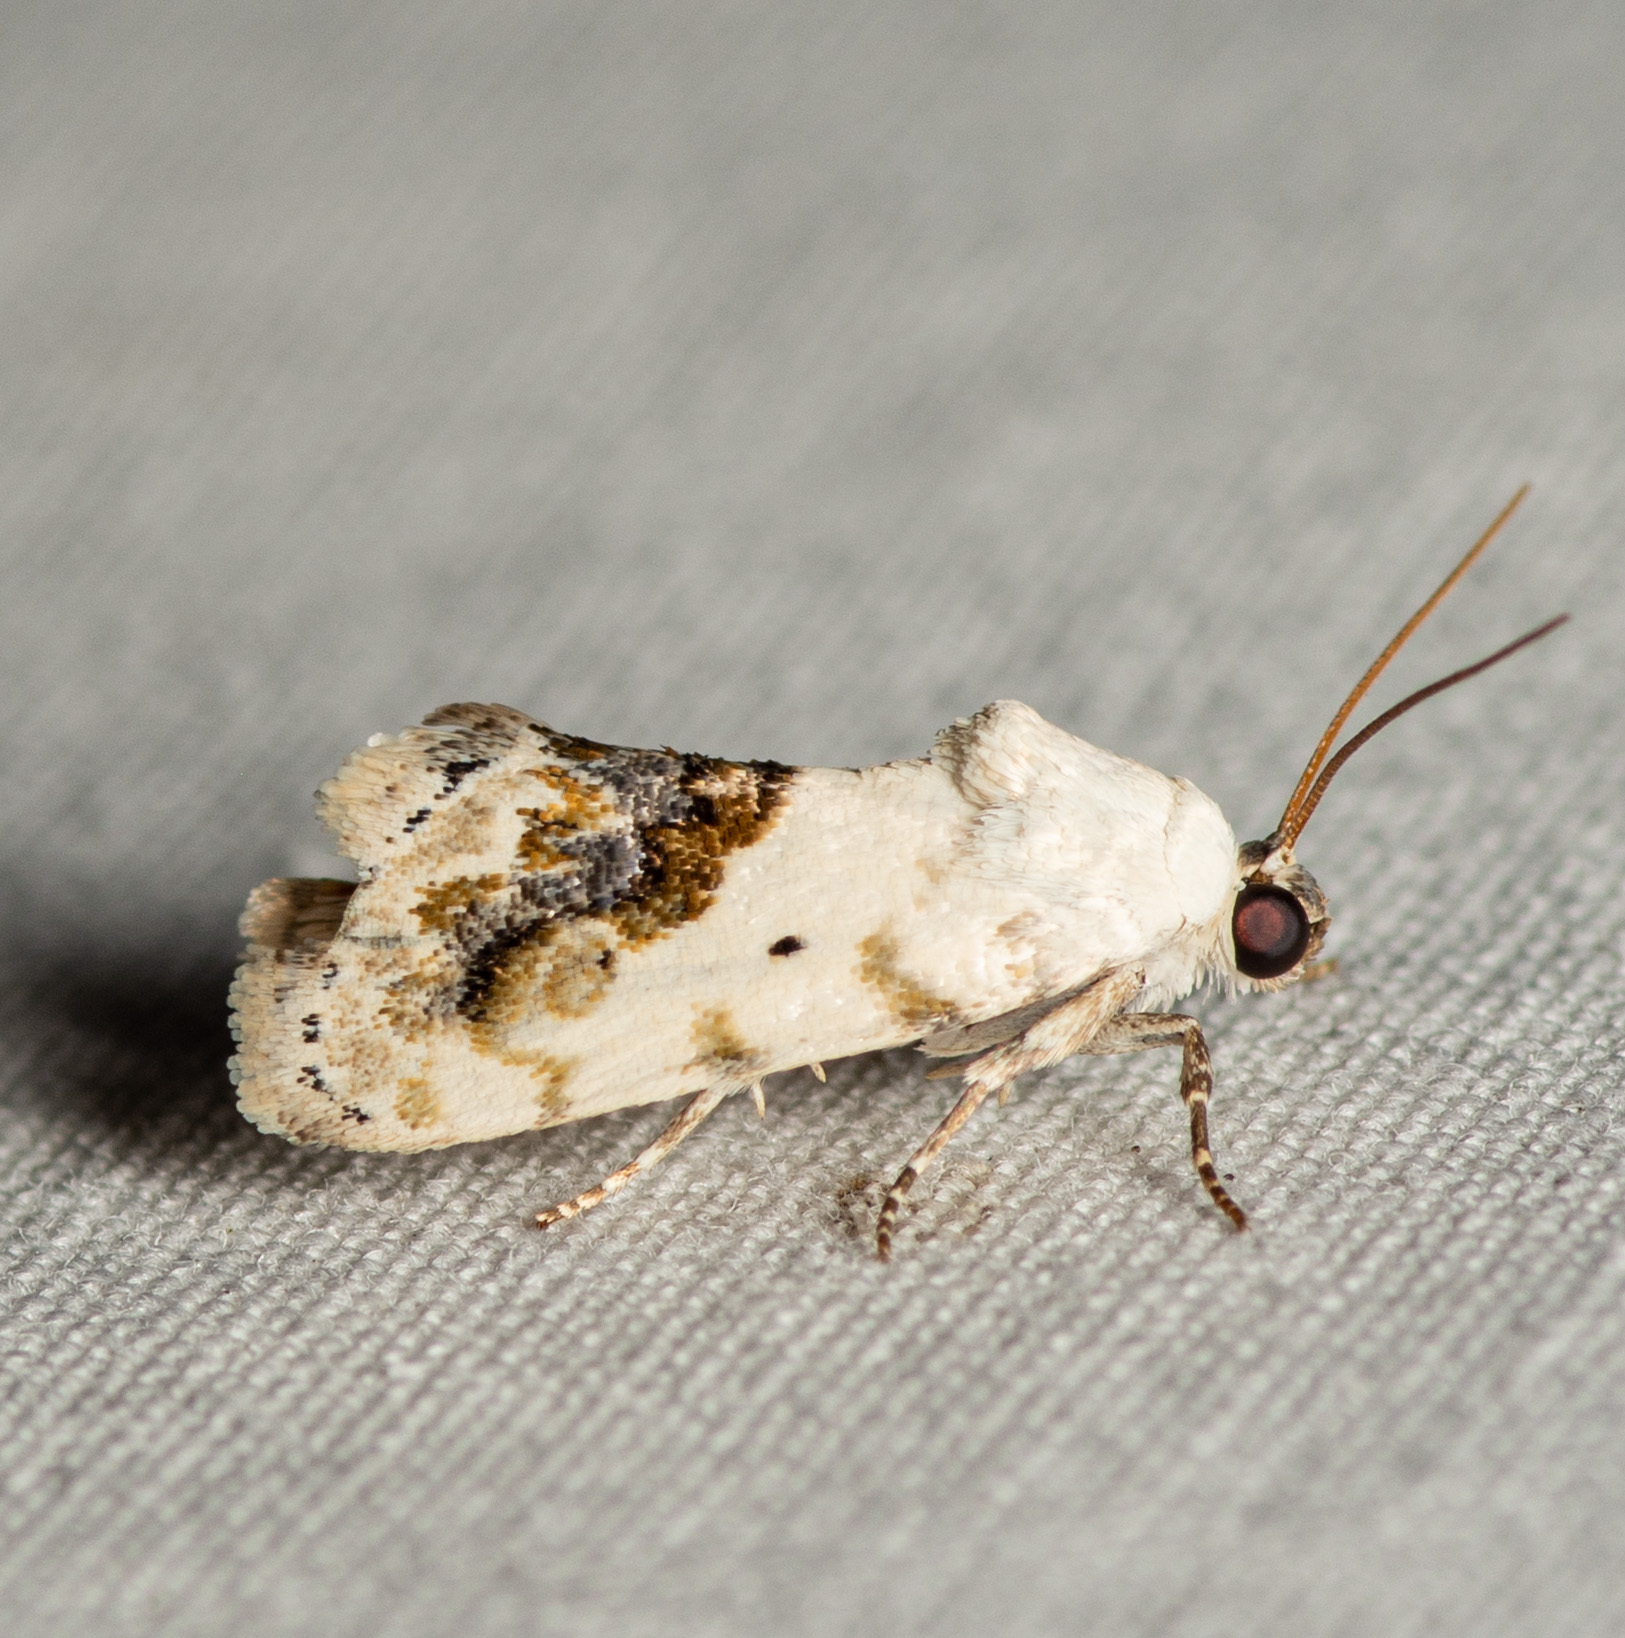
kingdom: Animalia
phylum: Arthropoda
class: Insecta
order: Lepidoptera
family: Noctuidae
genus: Acontia
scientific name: Acontia erastrioides
